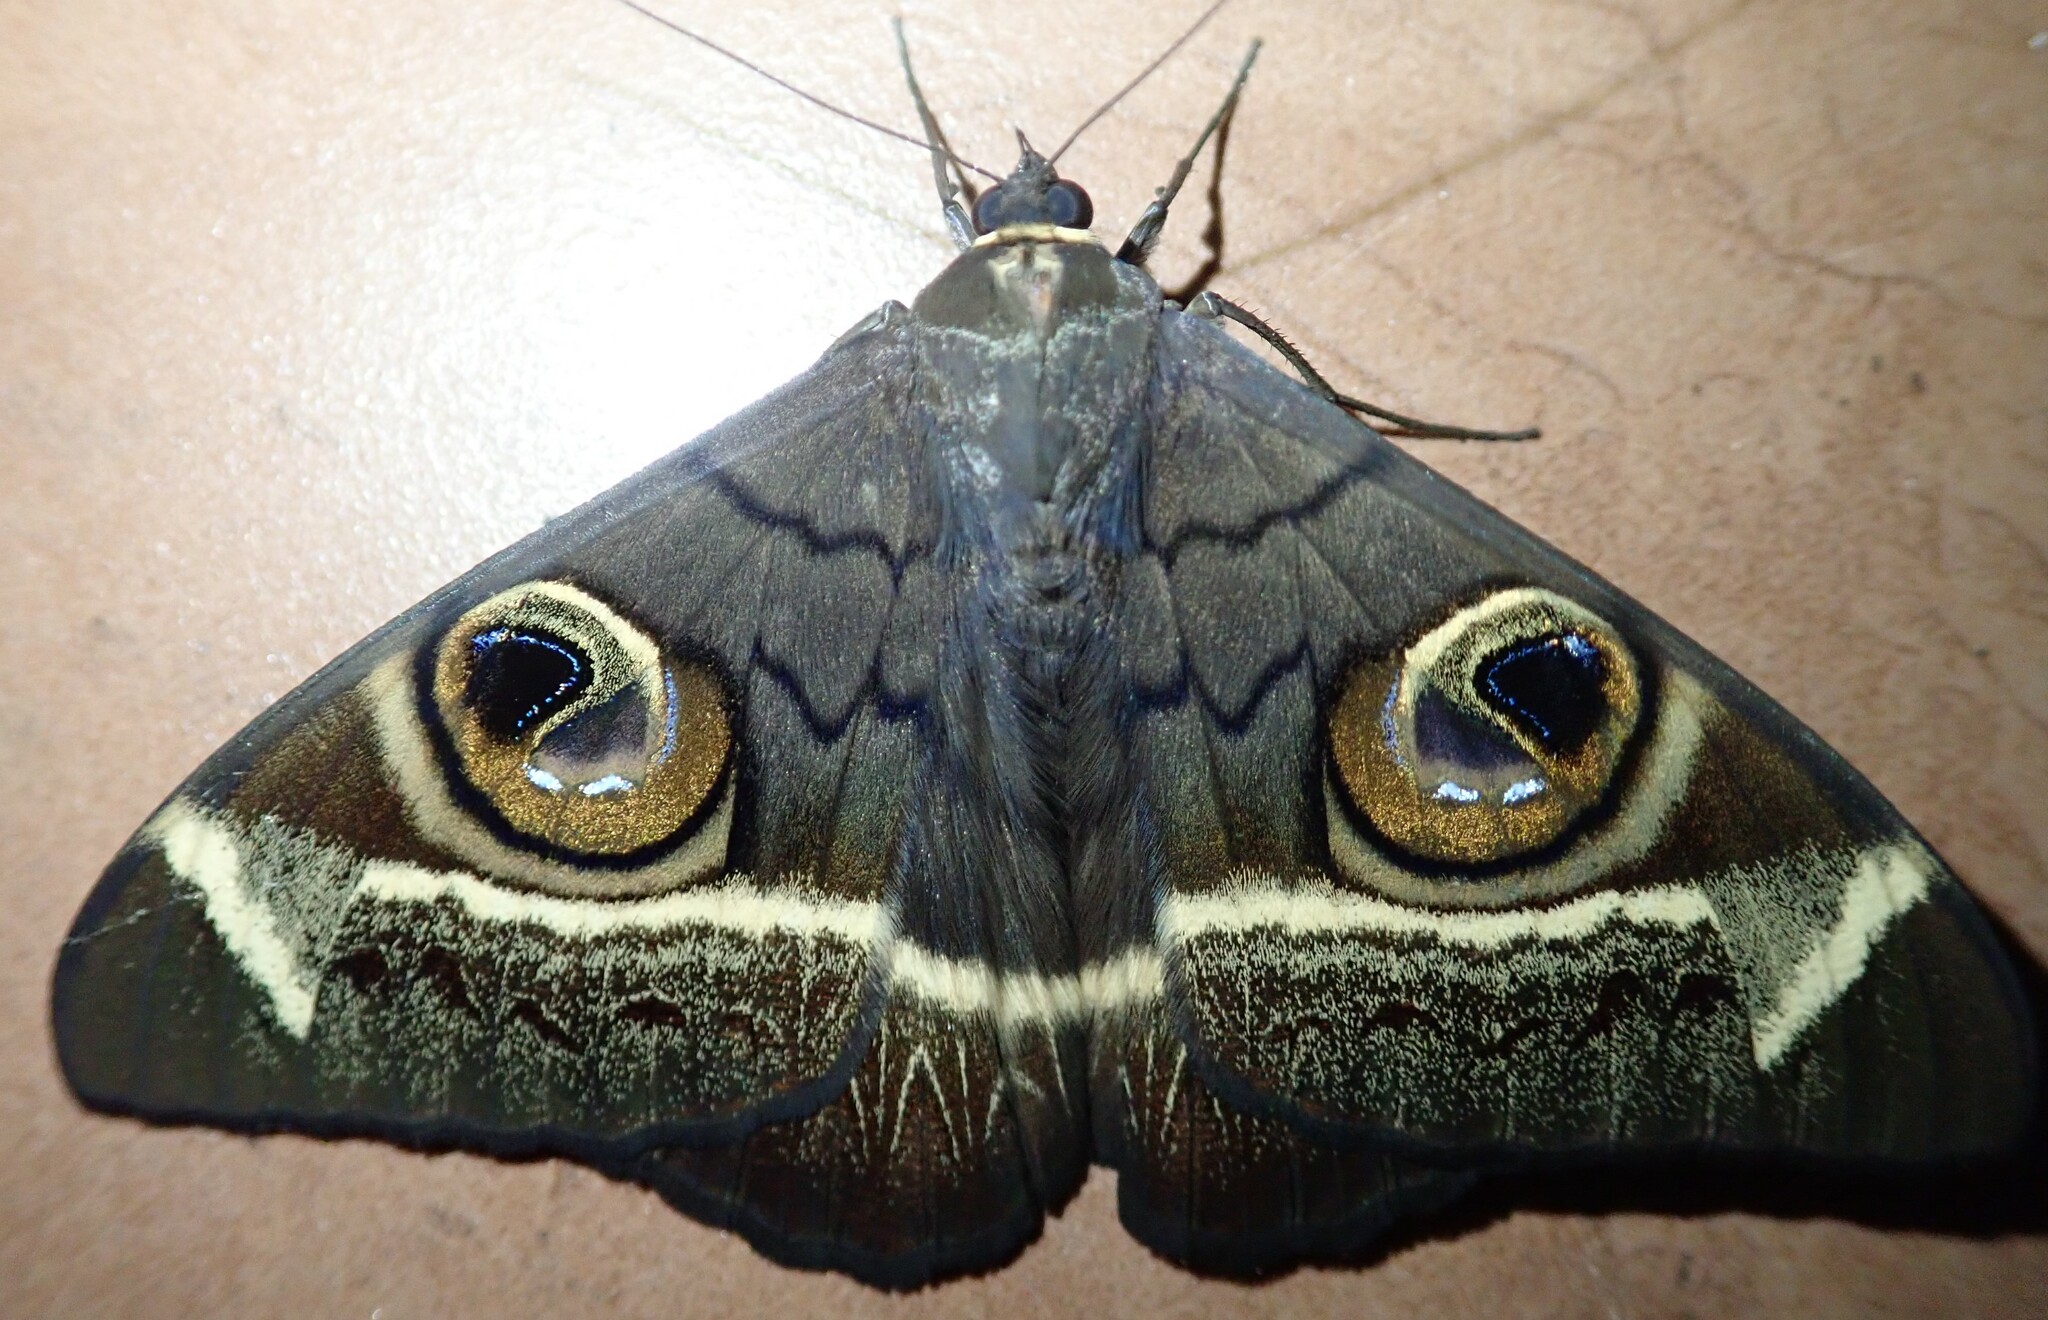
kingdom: Animalia
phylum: Arthropoda
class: Insecta
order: Lepidoptera
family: Erebidae
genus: Cyligramma
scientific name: Cyligramma latona
